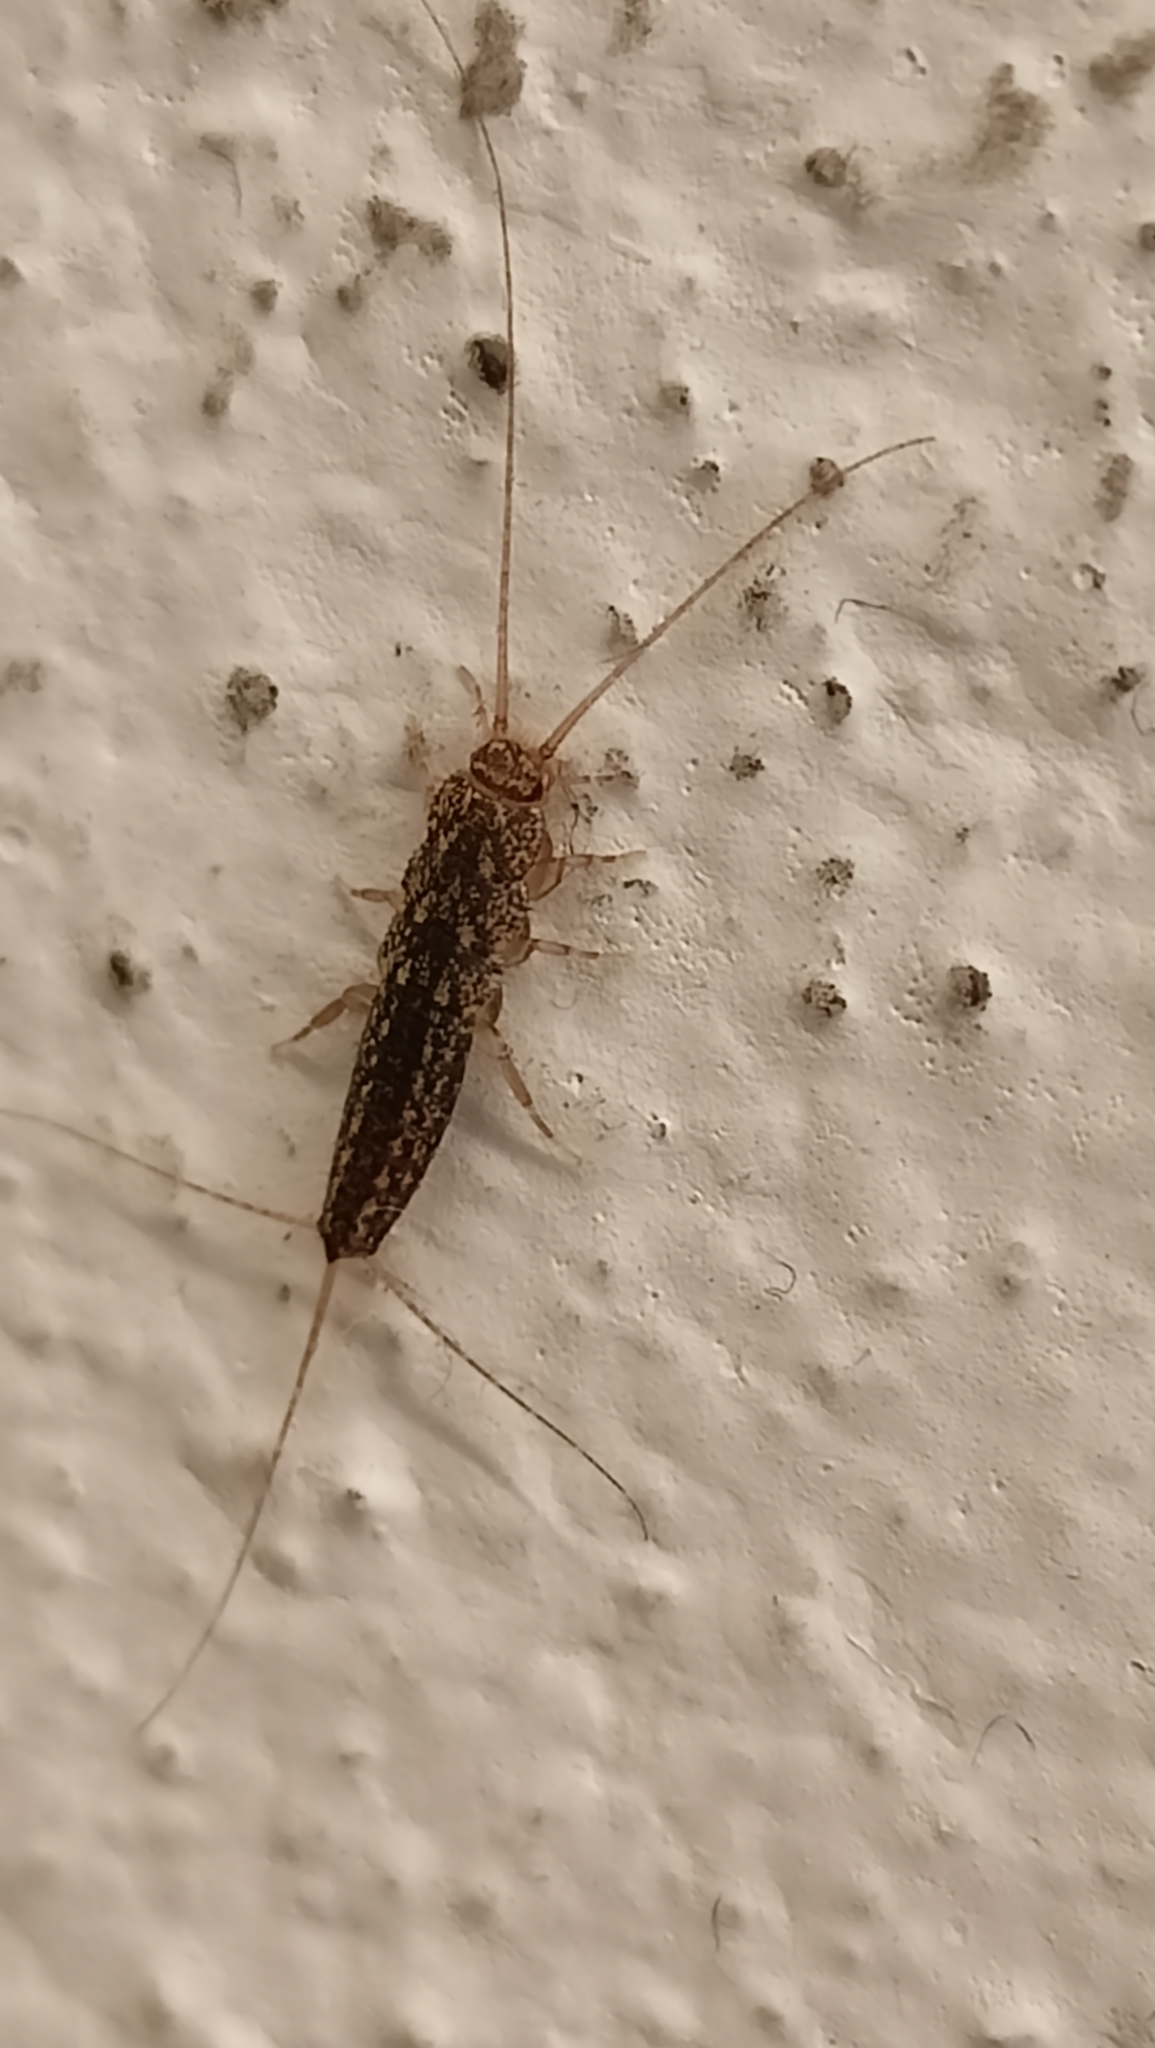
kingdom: Animalia
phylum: Arthropoda
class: Insecta
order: Zygentoma
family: Lepismatidae
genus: Ctenolepisma
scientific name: Ctenolepisma lineata
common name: Four-lined silverfish
